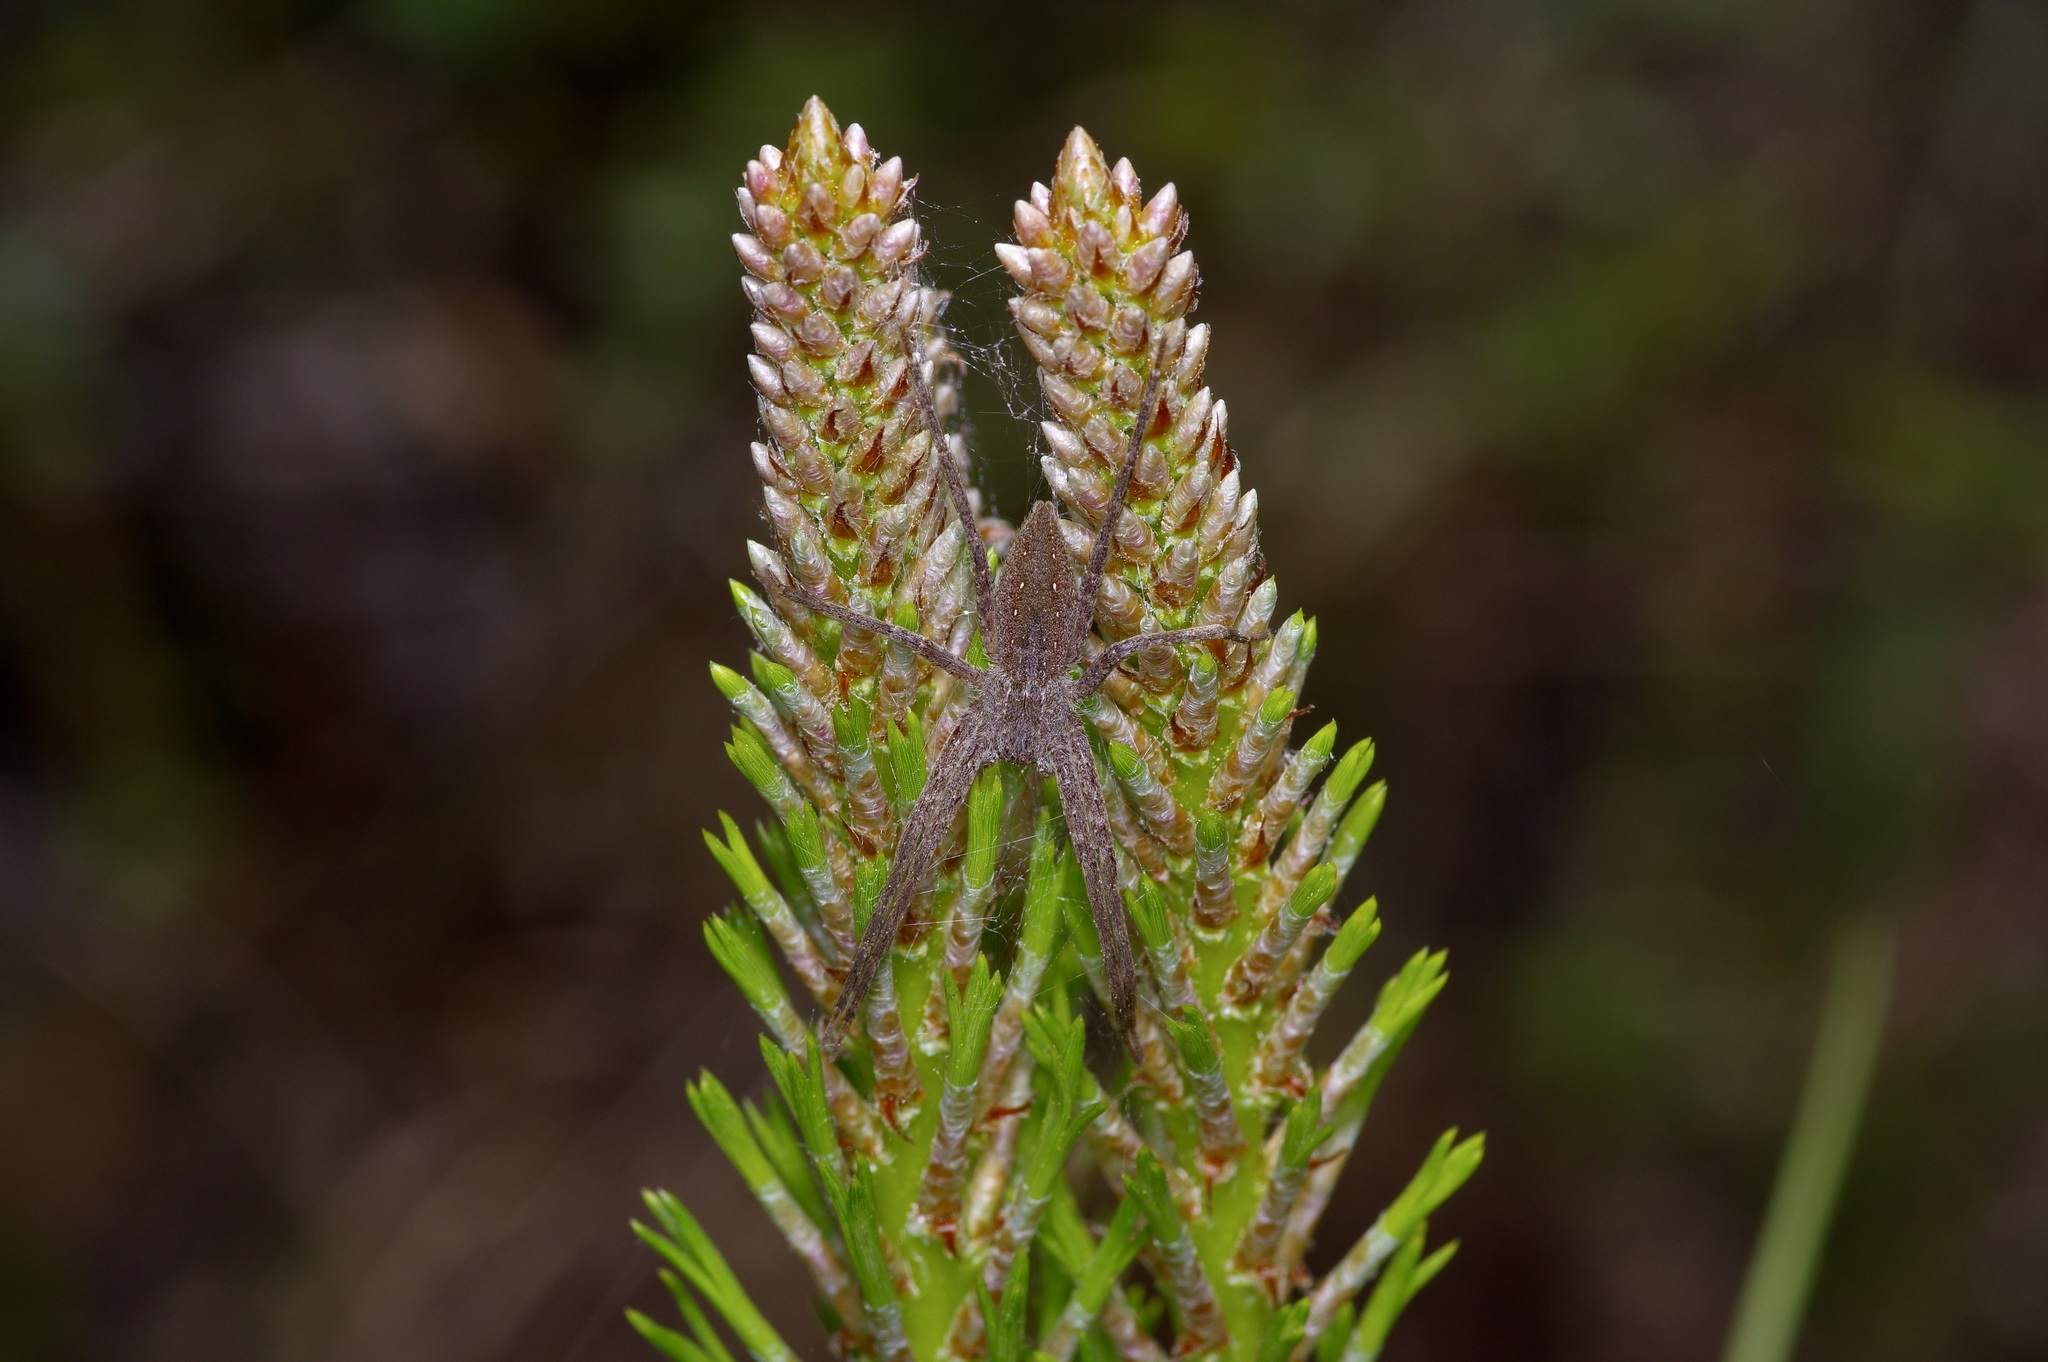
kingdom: Animalia
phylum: Arthropoda
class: Arachnida
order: Araneae
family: Pisauridae
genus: Pisaurina
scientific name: Pisaurina mira
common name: American nursery web spider
